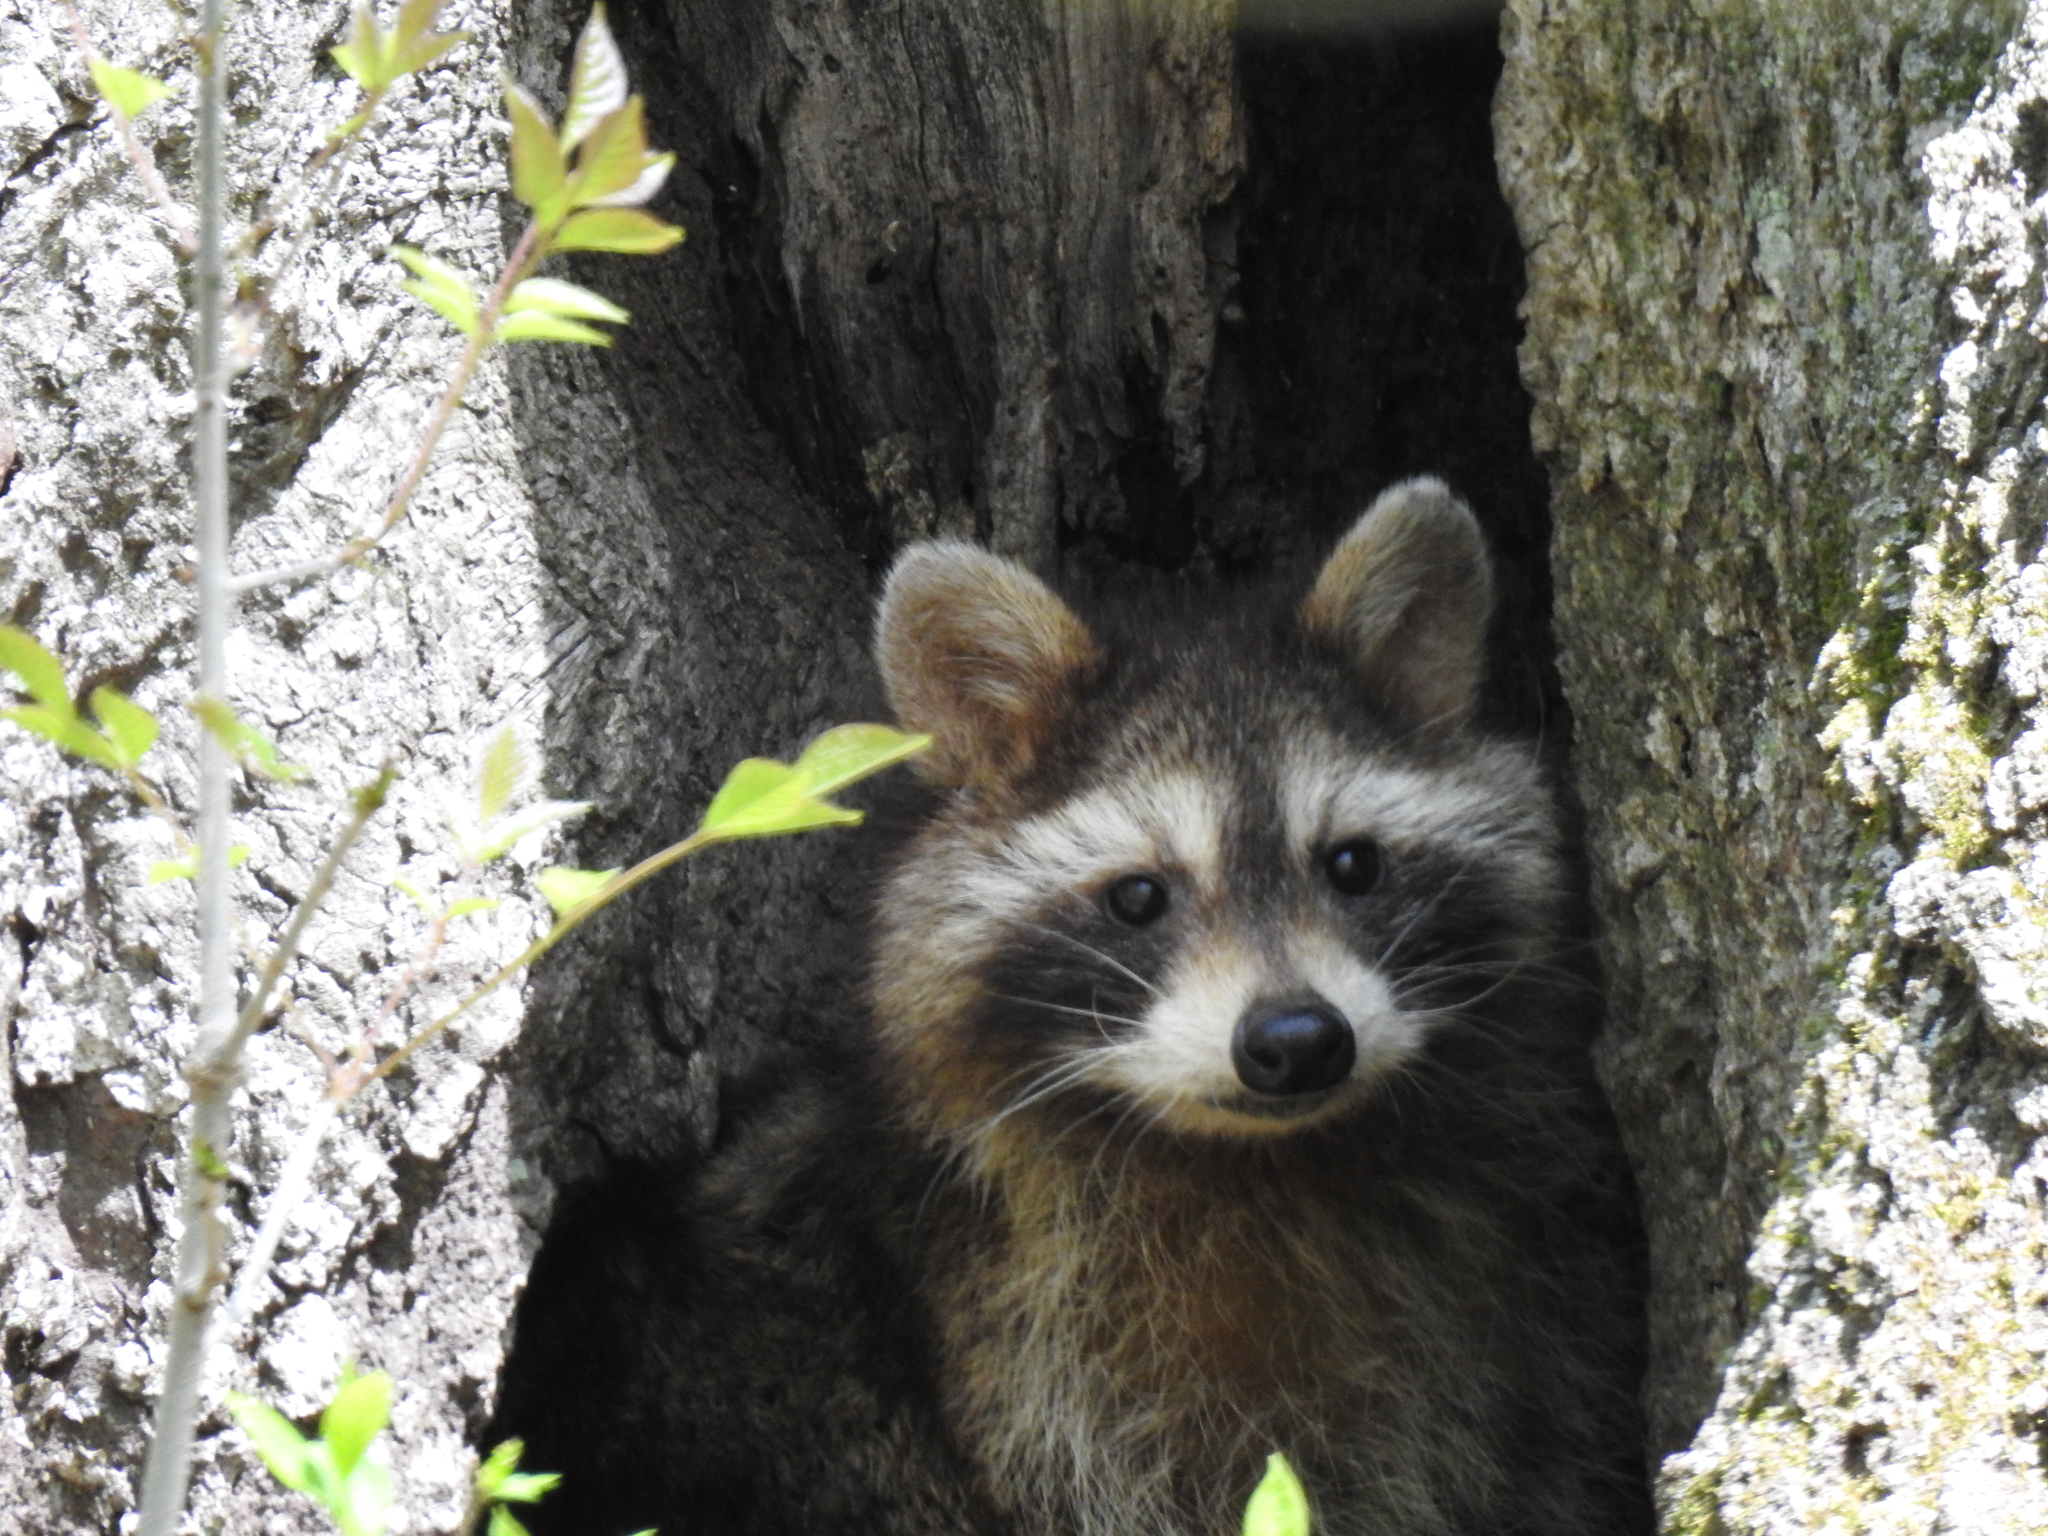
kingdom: Animalia
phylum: Chordata
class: Mammalia
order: Carnivora
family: Procyonidae
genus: Procyon
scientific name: Procyon lotor
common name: Raccoon
